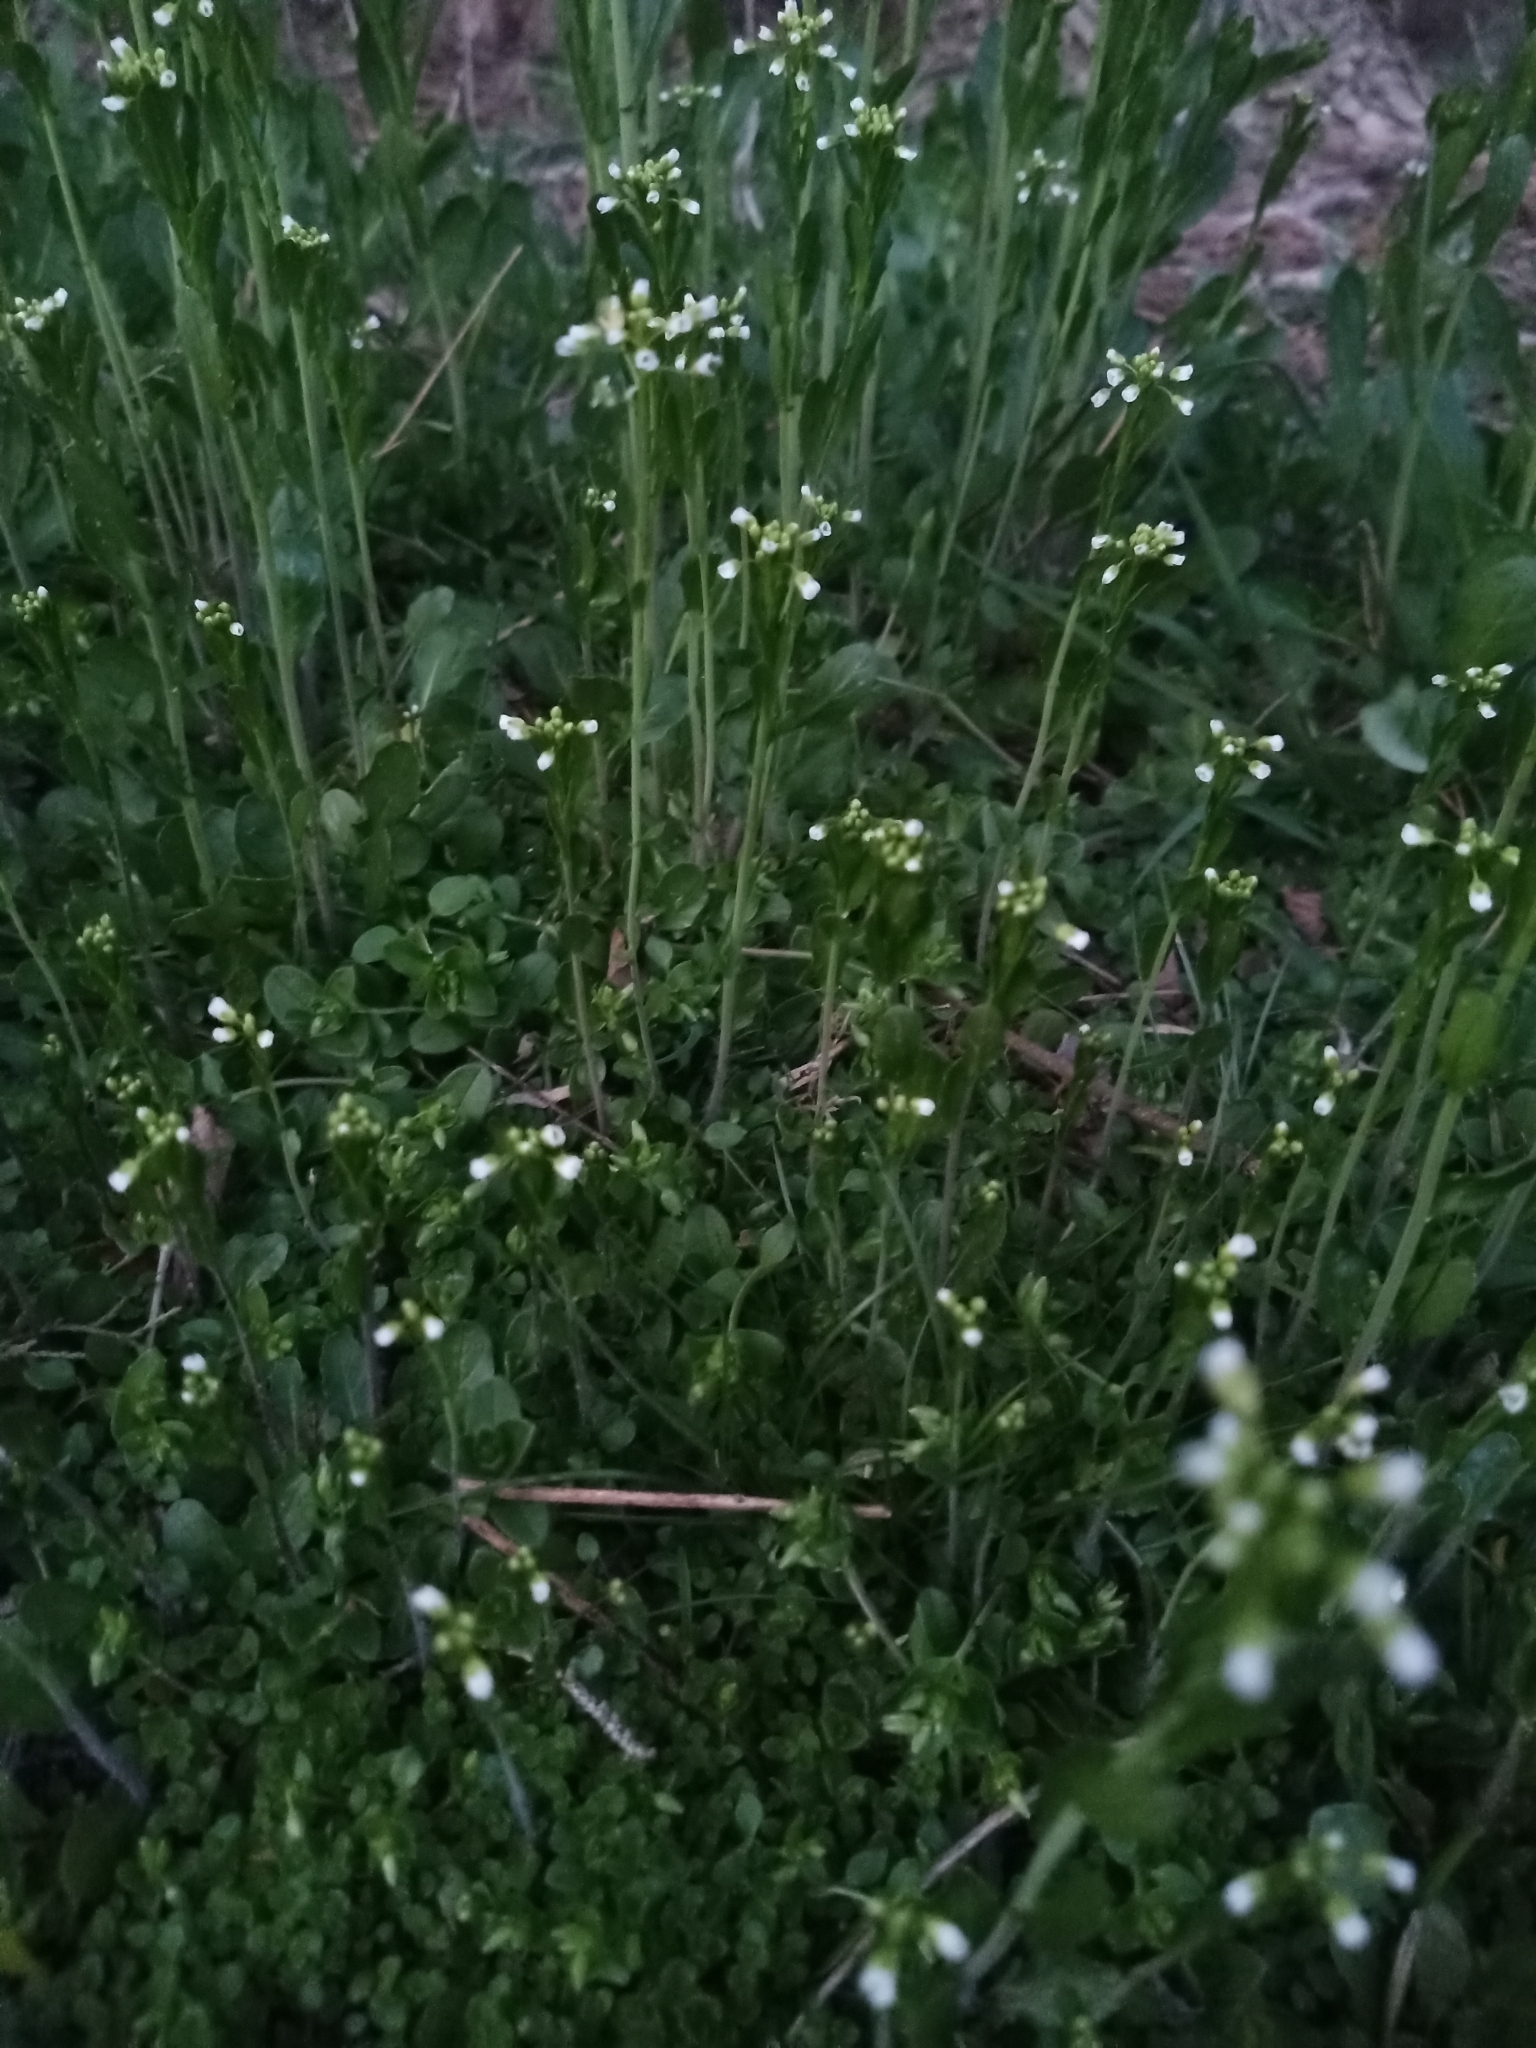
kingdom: Plantae
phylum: Tracheophyta
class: Magnoliopsida
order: Brassicales
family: Brassicaceae
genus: Mummenhoffia
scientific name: Mummenhoffia alliacea
